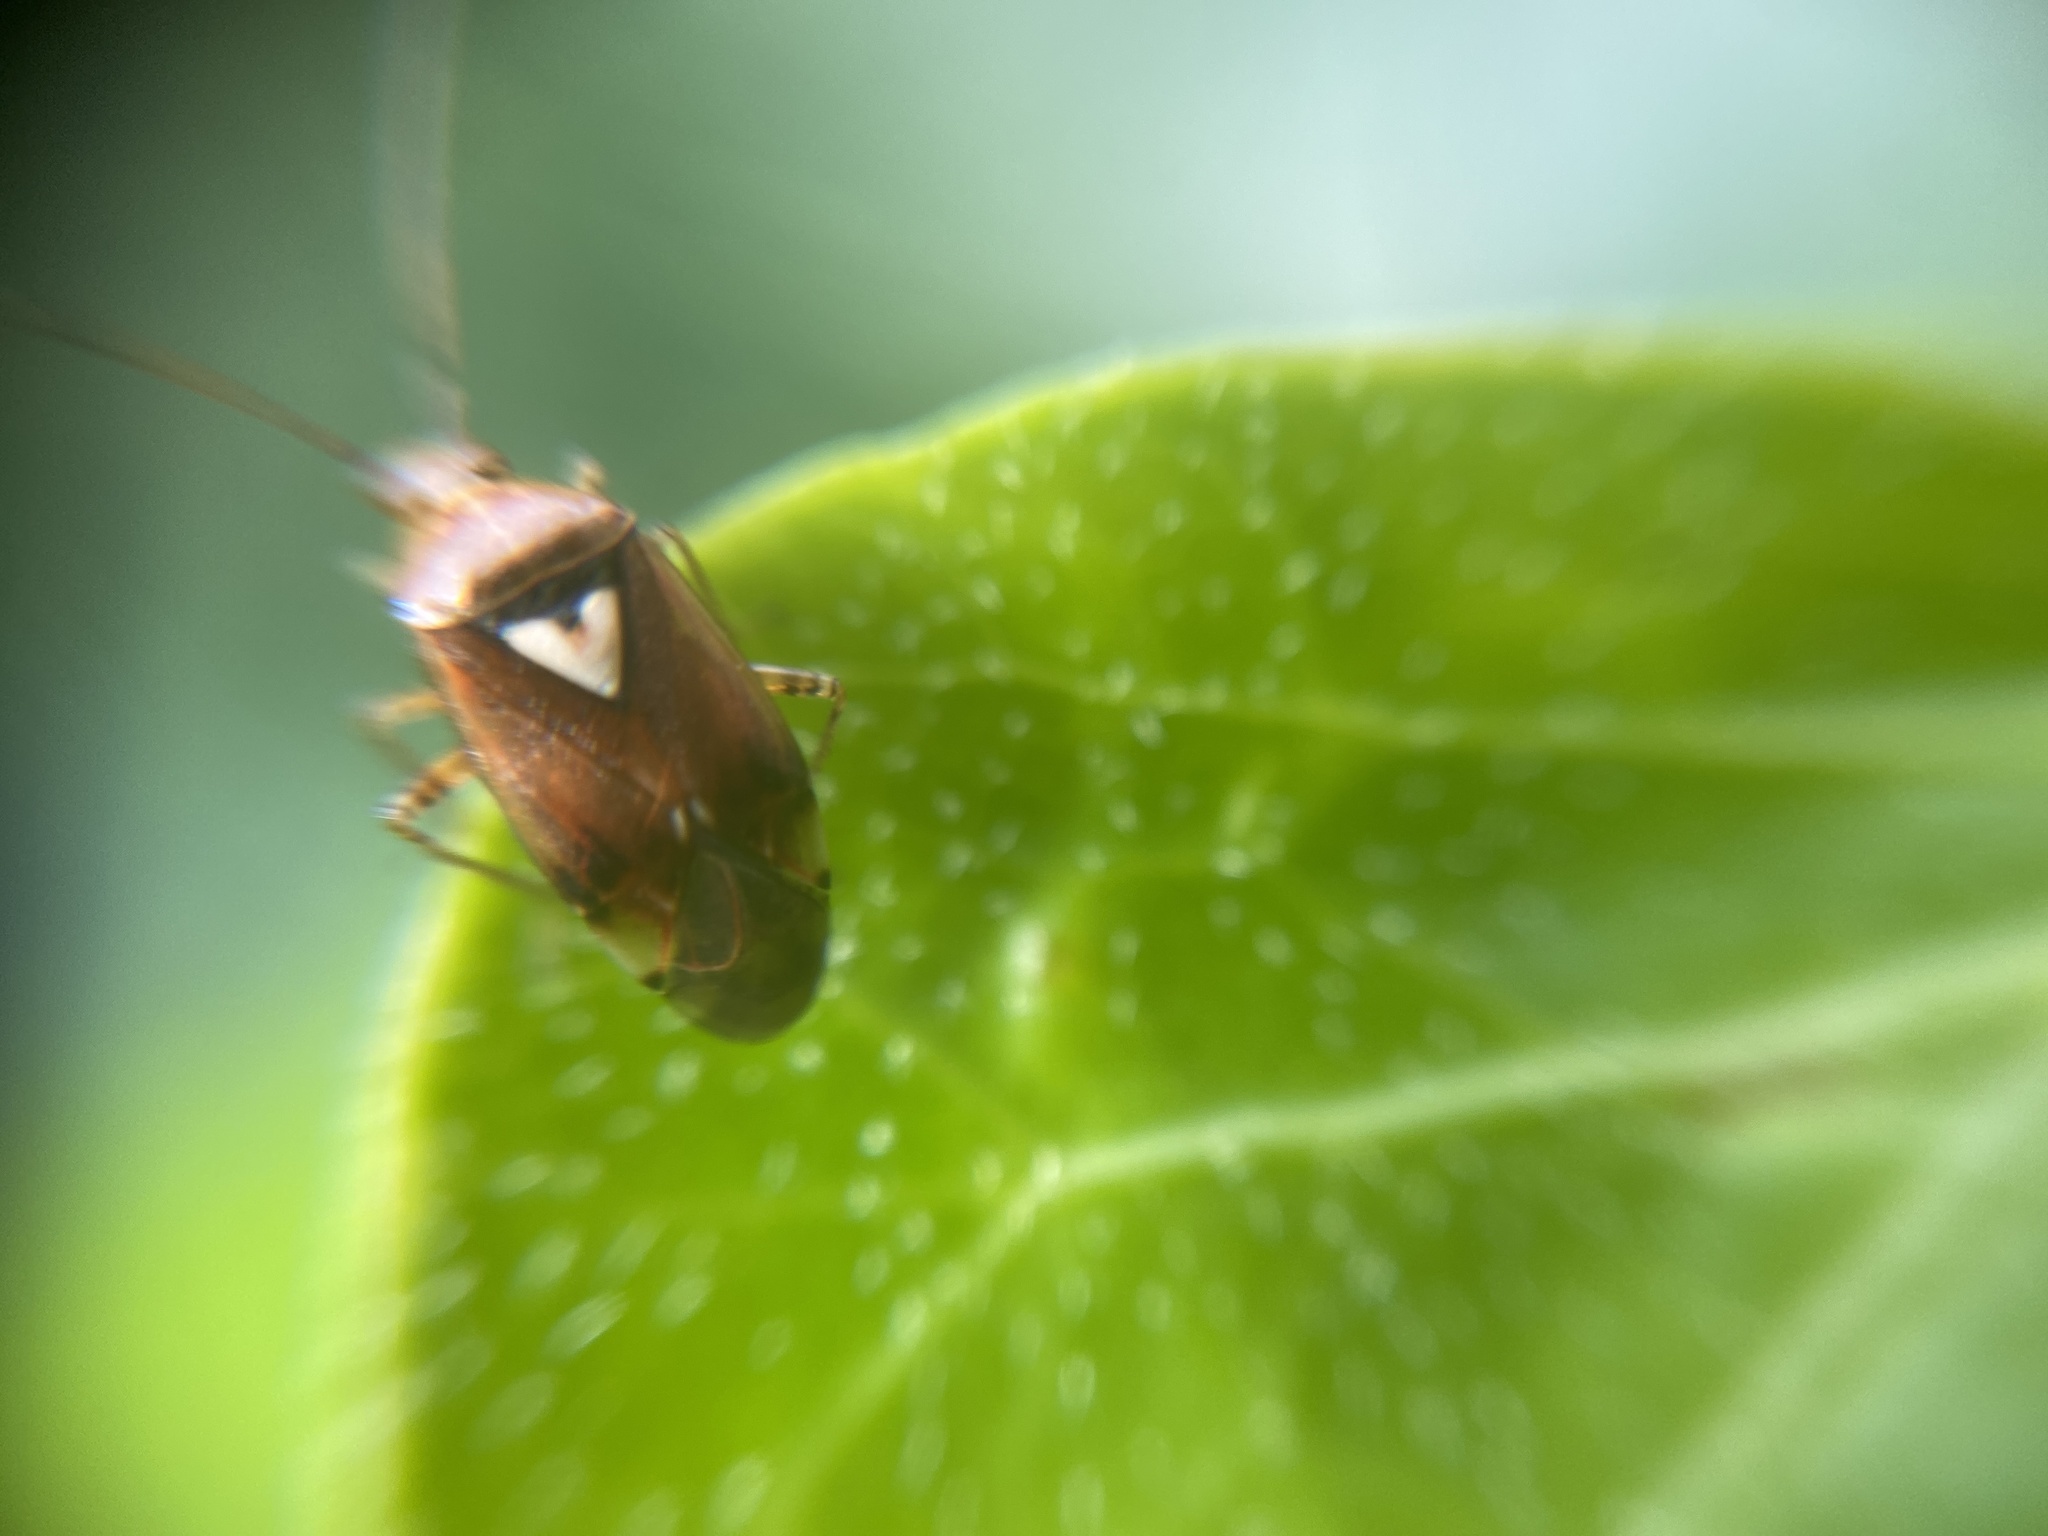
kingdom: Animalia
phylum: Arthropoda
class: Insecta
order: Hemiptera
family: Miridae
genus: Lygus
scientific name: Lygus pratensis
